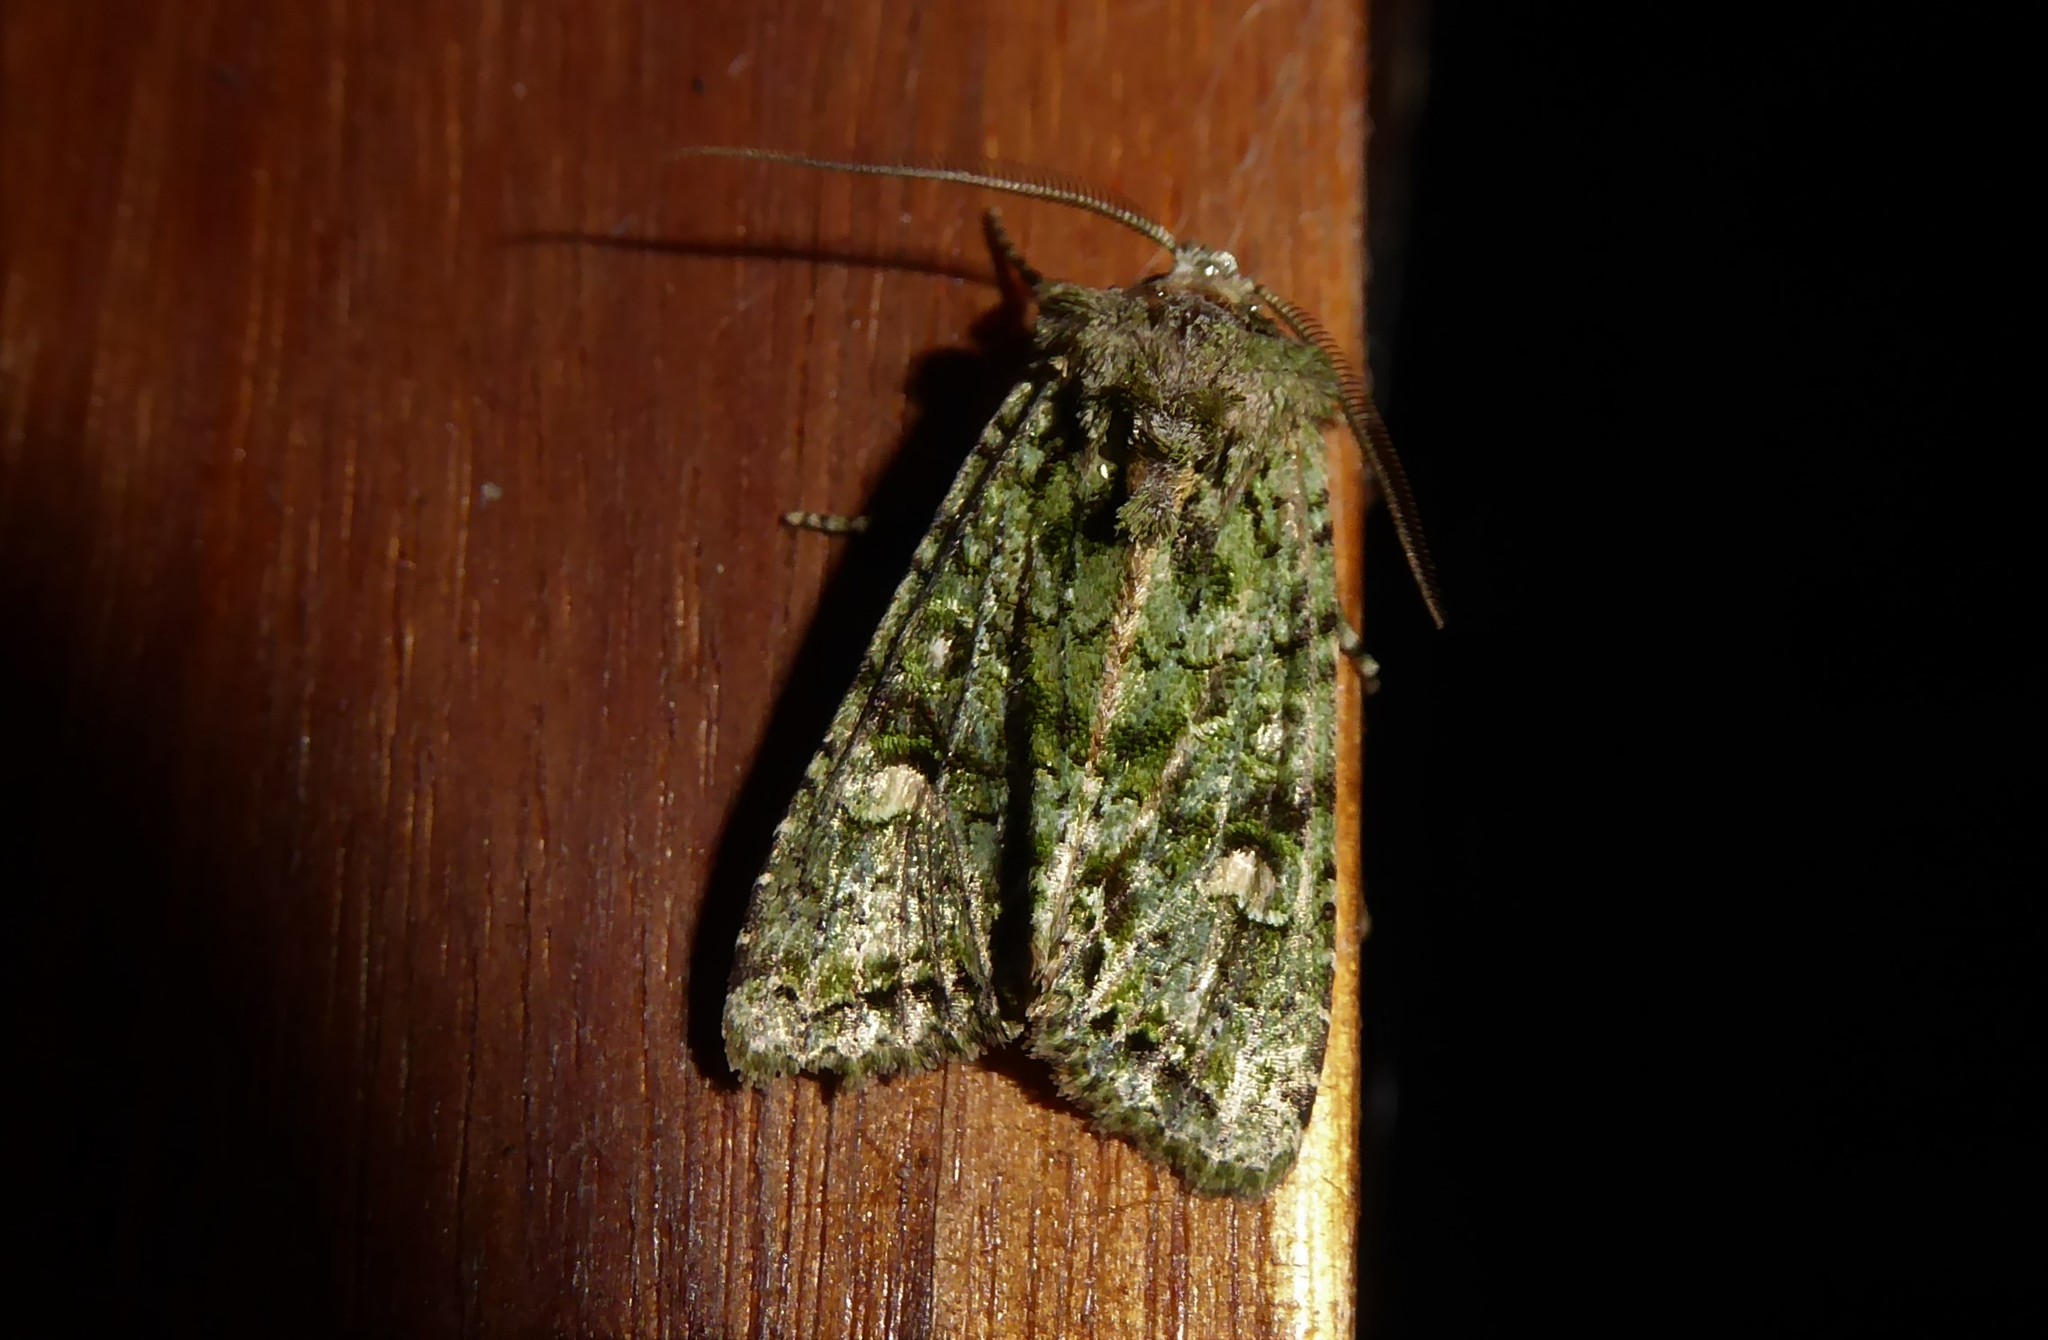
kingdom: Animalia
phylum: Arthropoda
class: Insecta
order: Lepidoptera
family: Noctuidae
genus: Ichneutica
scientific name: Ichneutica
